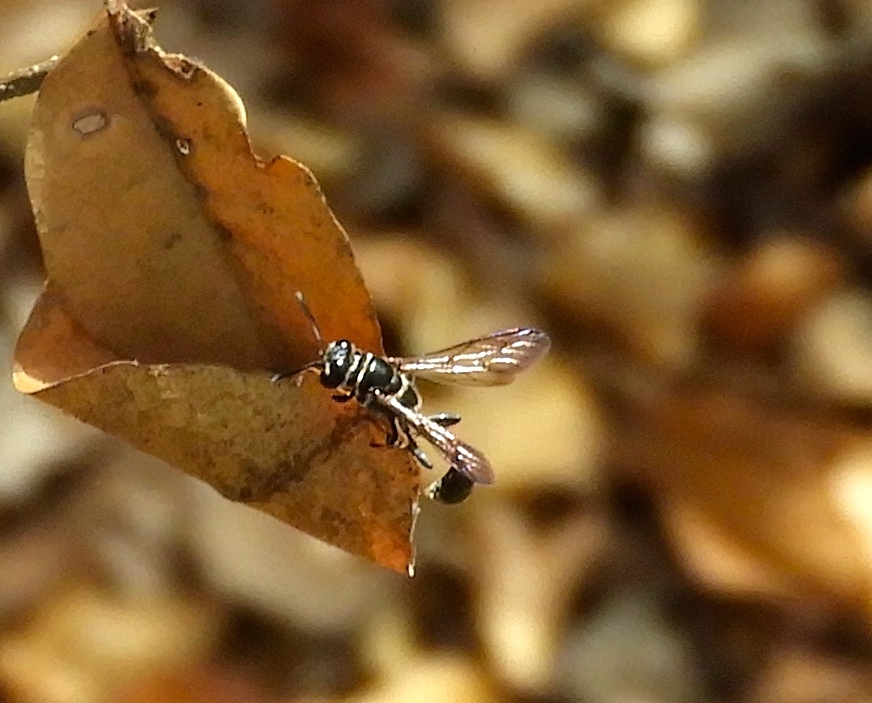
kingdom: Animalia
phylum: Arthropoda
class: Insecta
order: Hymenoptera
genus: Trypargilum
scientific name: Trypargilum
